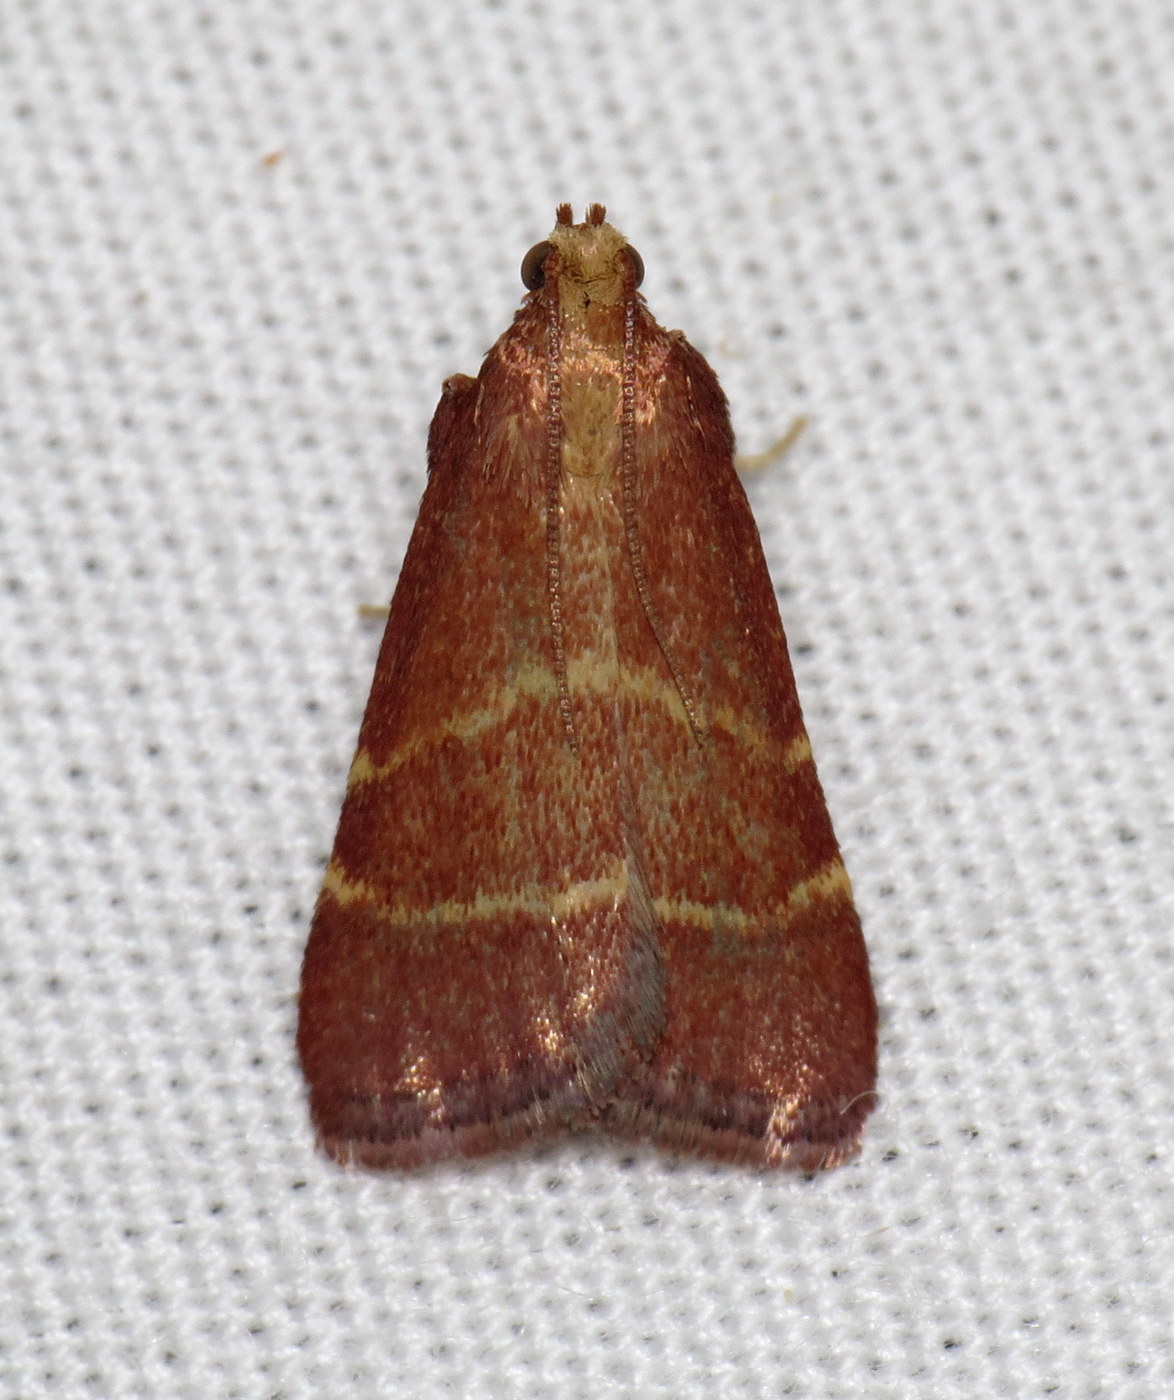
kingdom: Animalia
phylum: Arthropoda
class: Insecta
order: Lepidoptera
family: Pyralidae
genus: Arta
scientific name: Arta statalis
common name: Posturing arta moth
